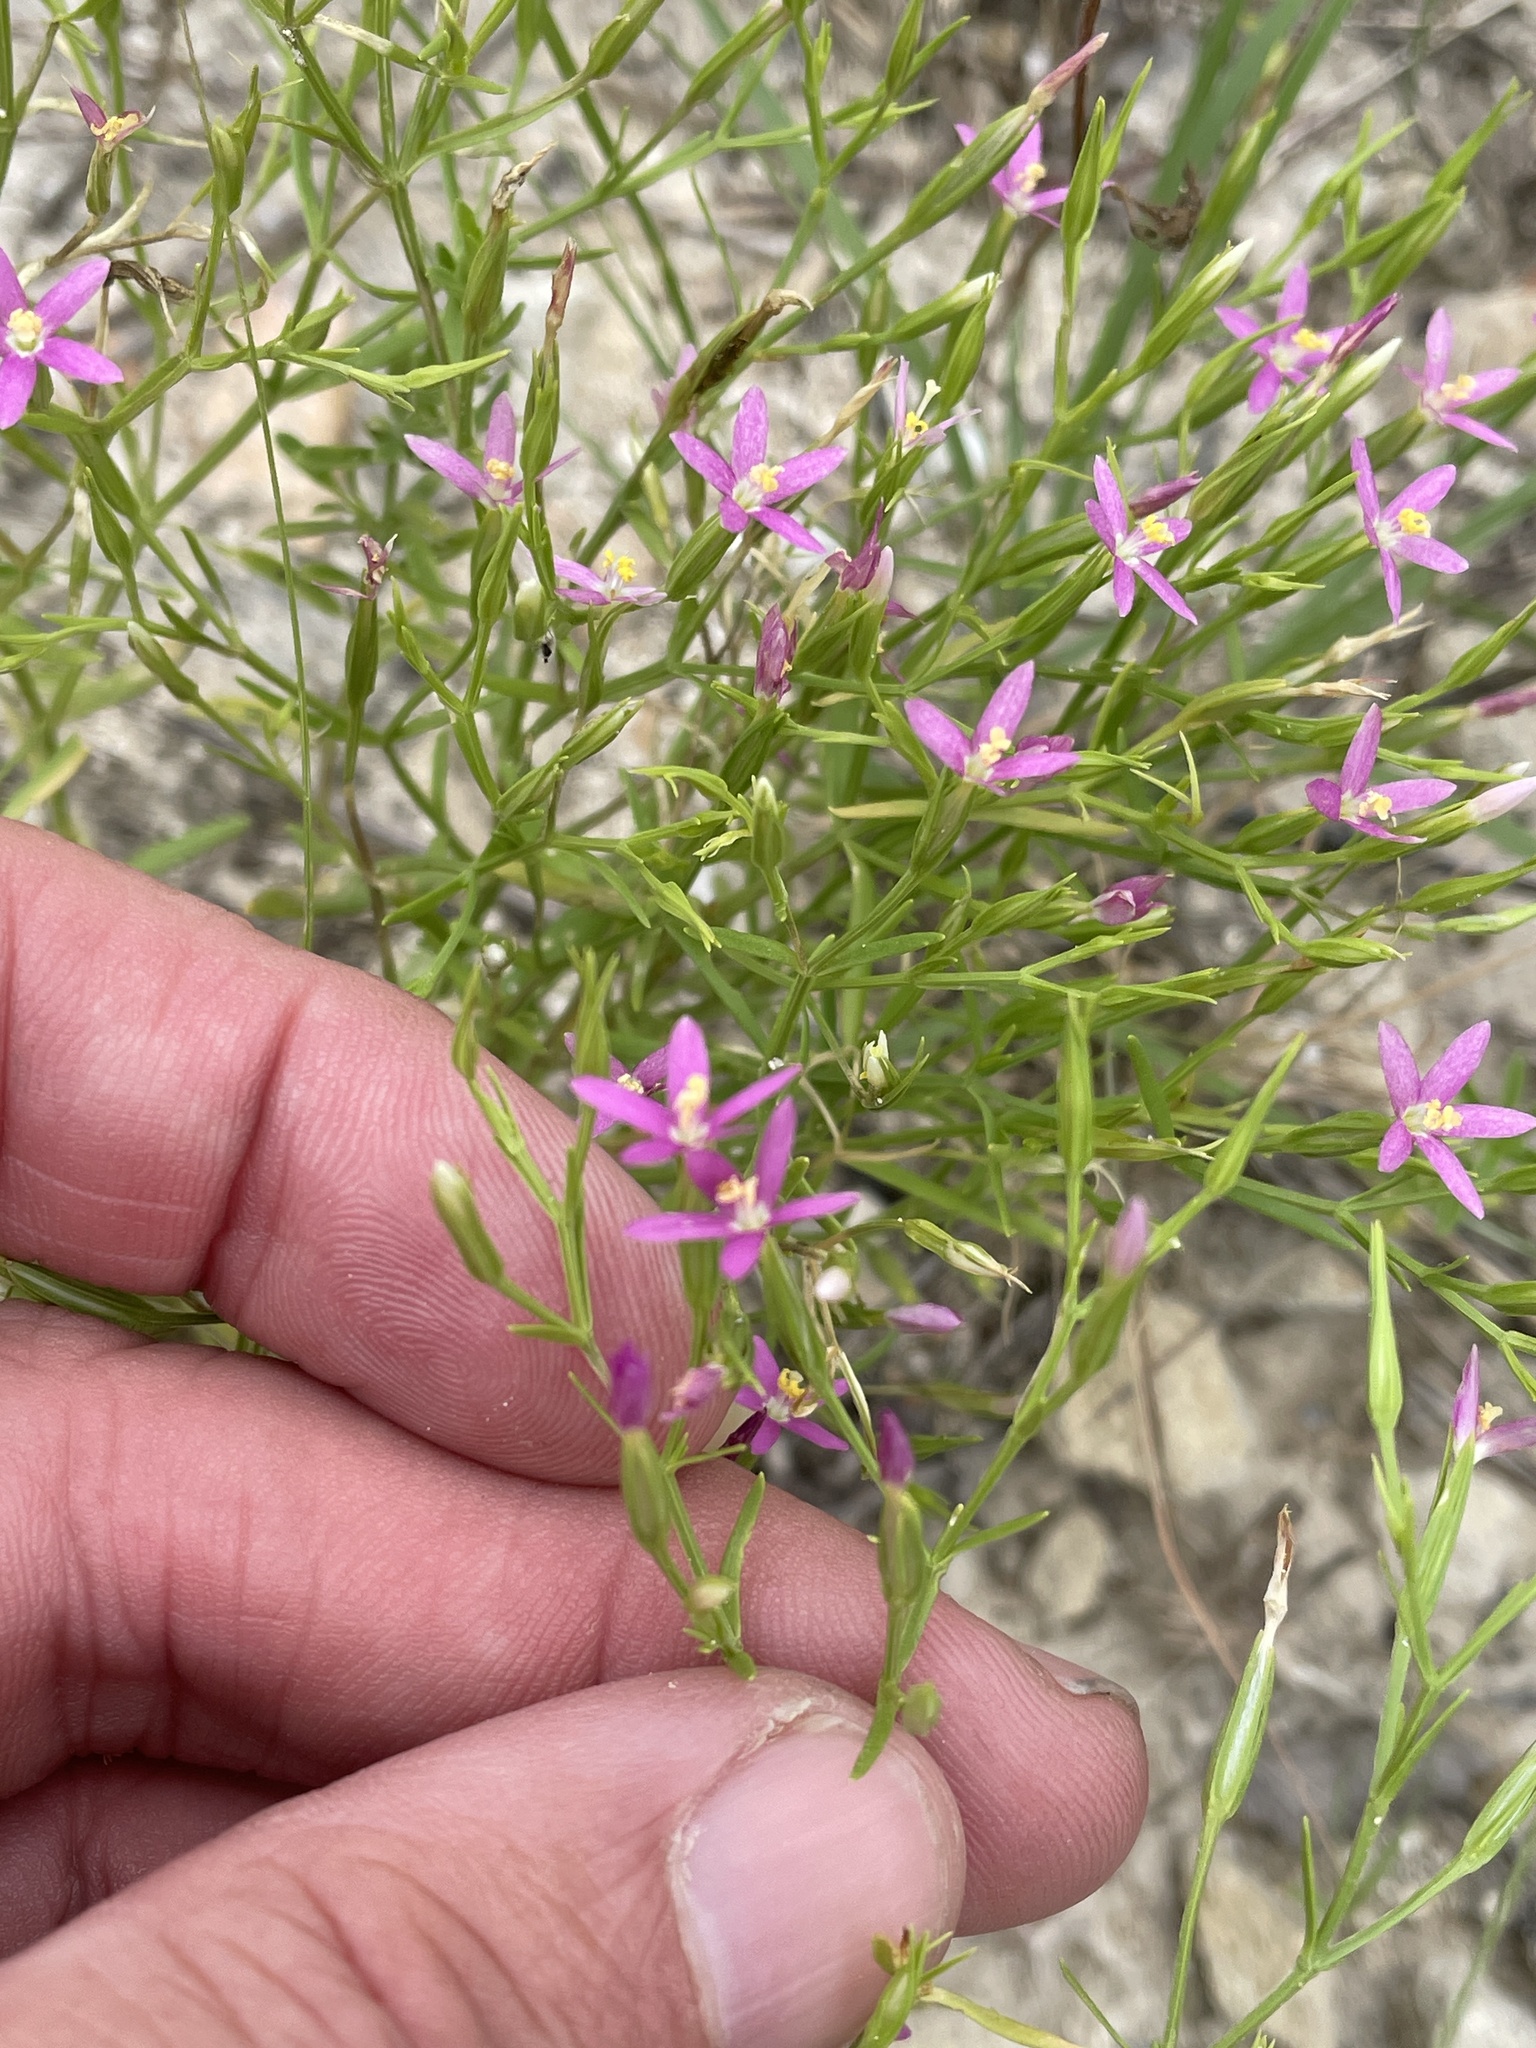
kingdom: Plantae
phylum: Tracheophyta
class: Magnoliopsida
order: Gentianales
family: Gentianaceae
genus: Zeltnera
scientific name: Zeltnera texensis
